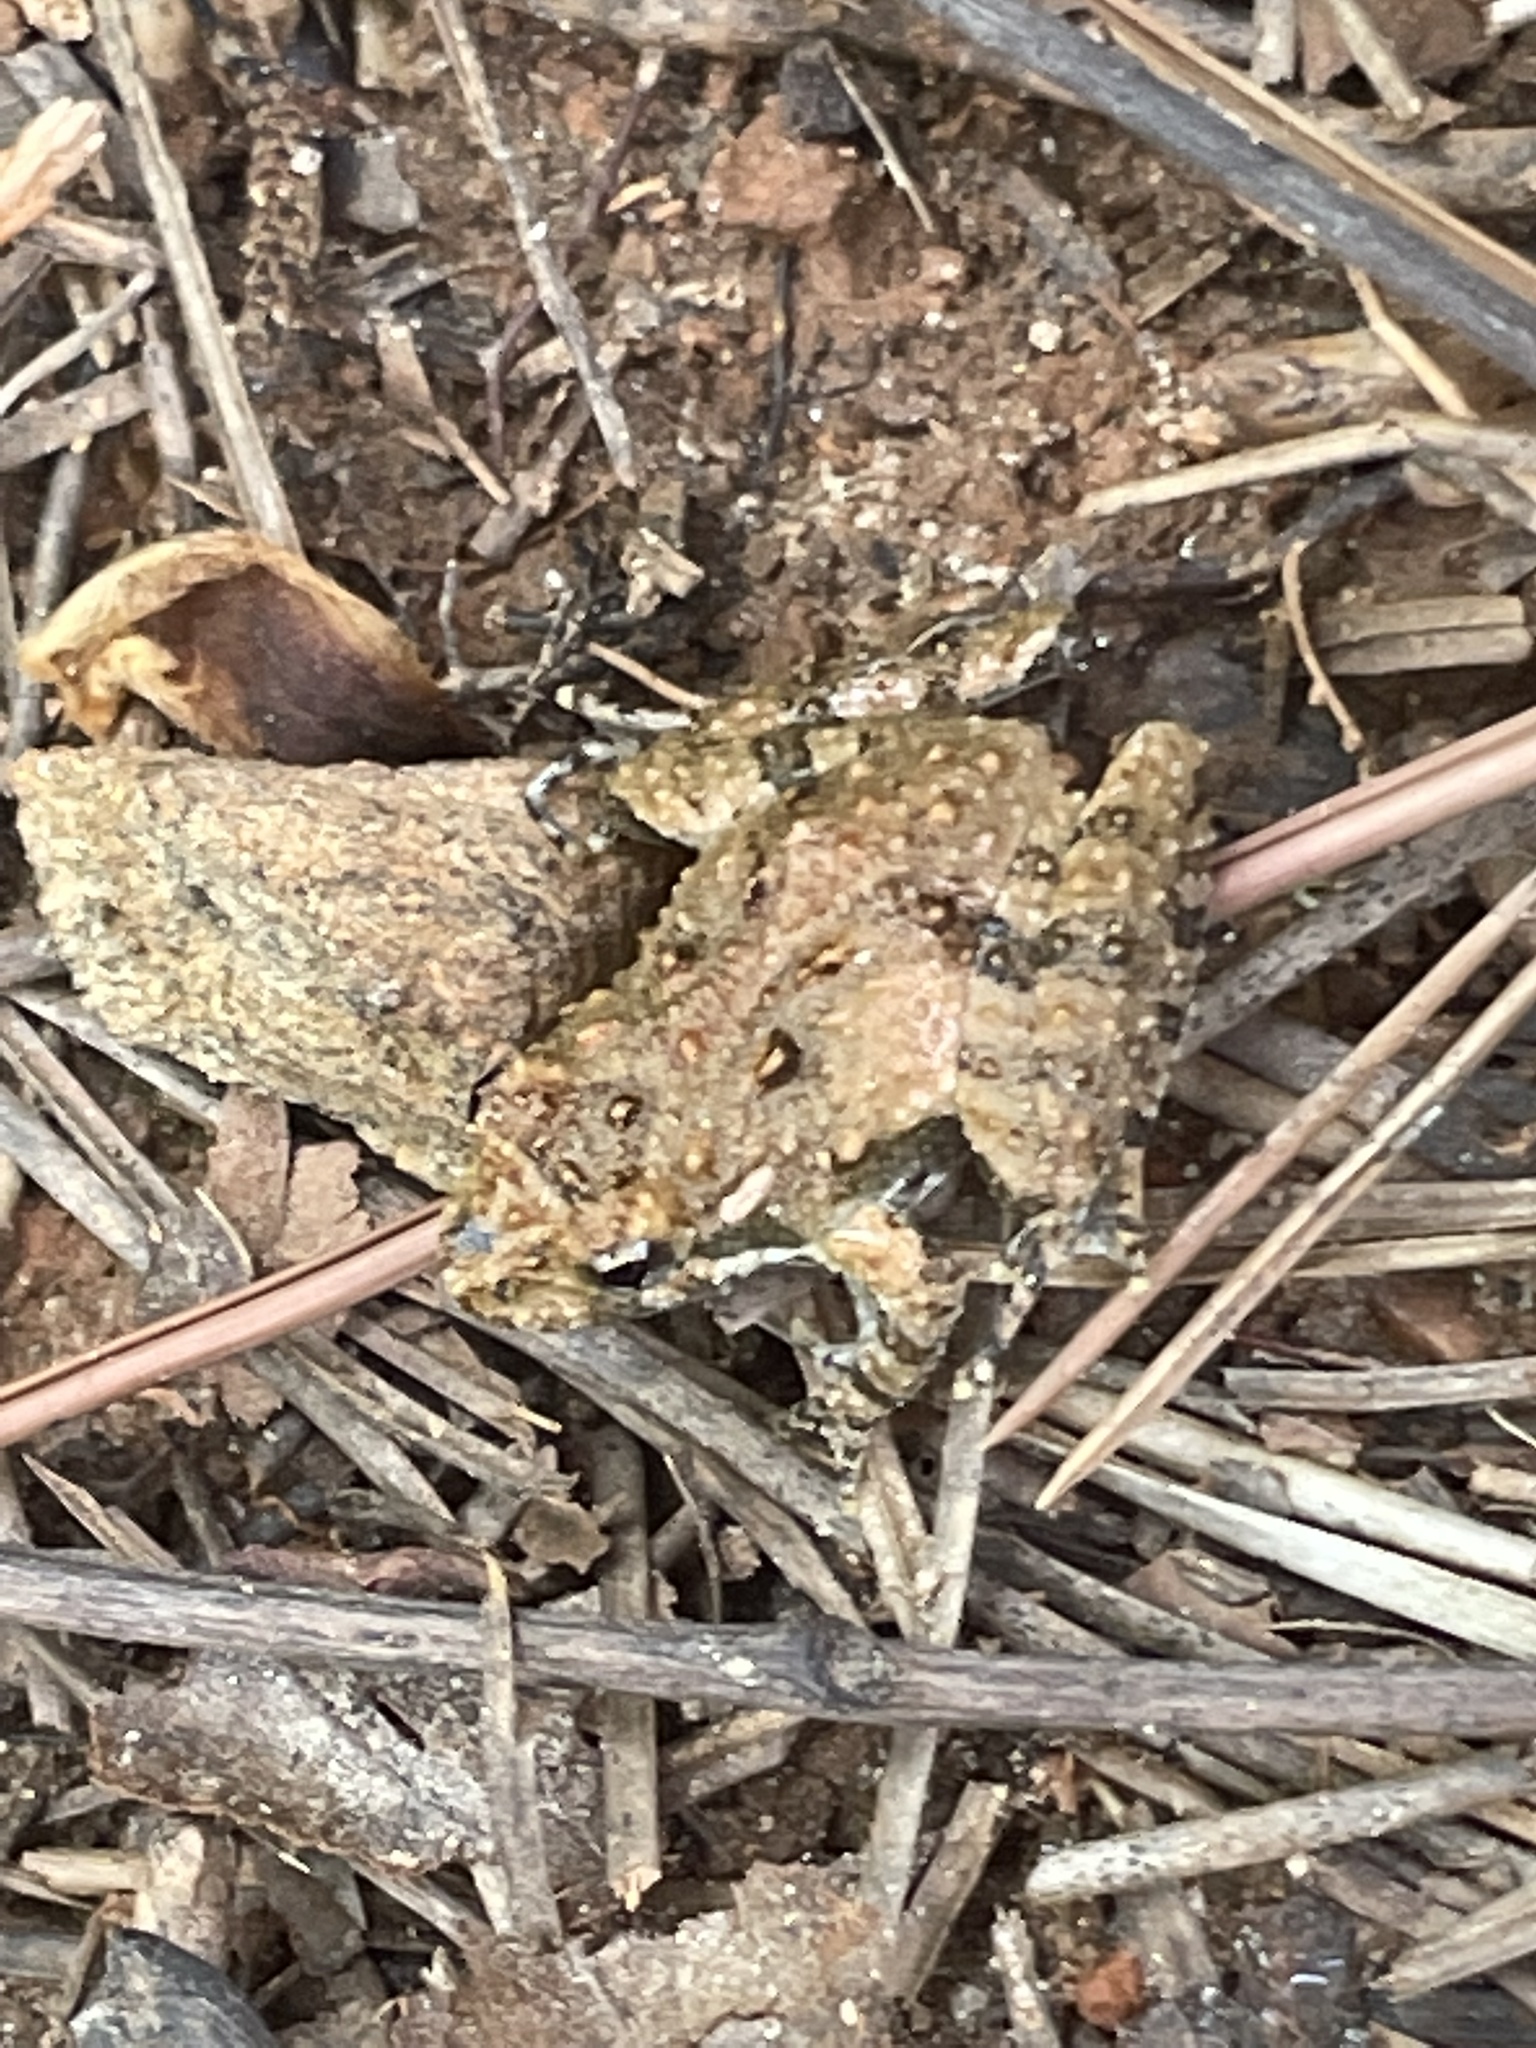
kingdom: Animalia
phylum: Chordata
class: Amphibia
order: Anura
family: Hylidae
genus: Acris
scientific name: Acris crepitans
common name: Northern cricket frog
